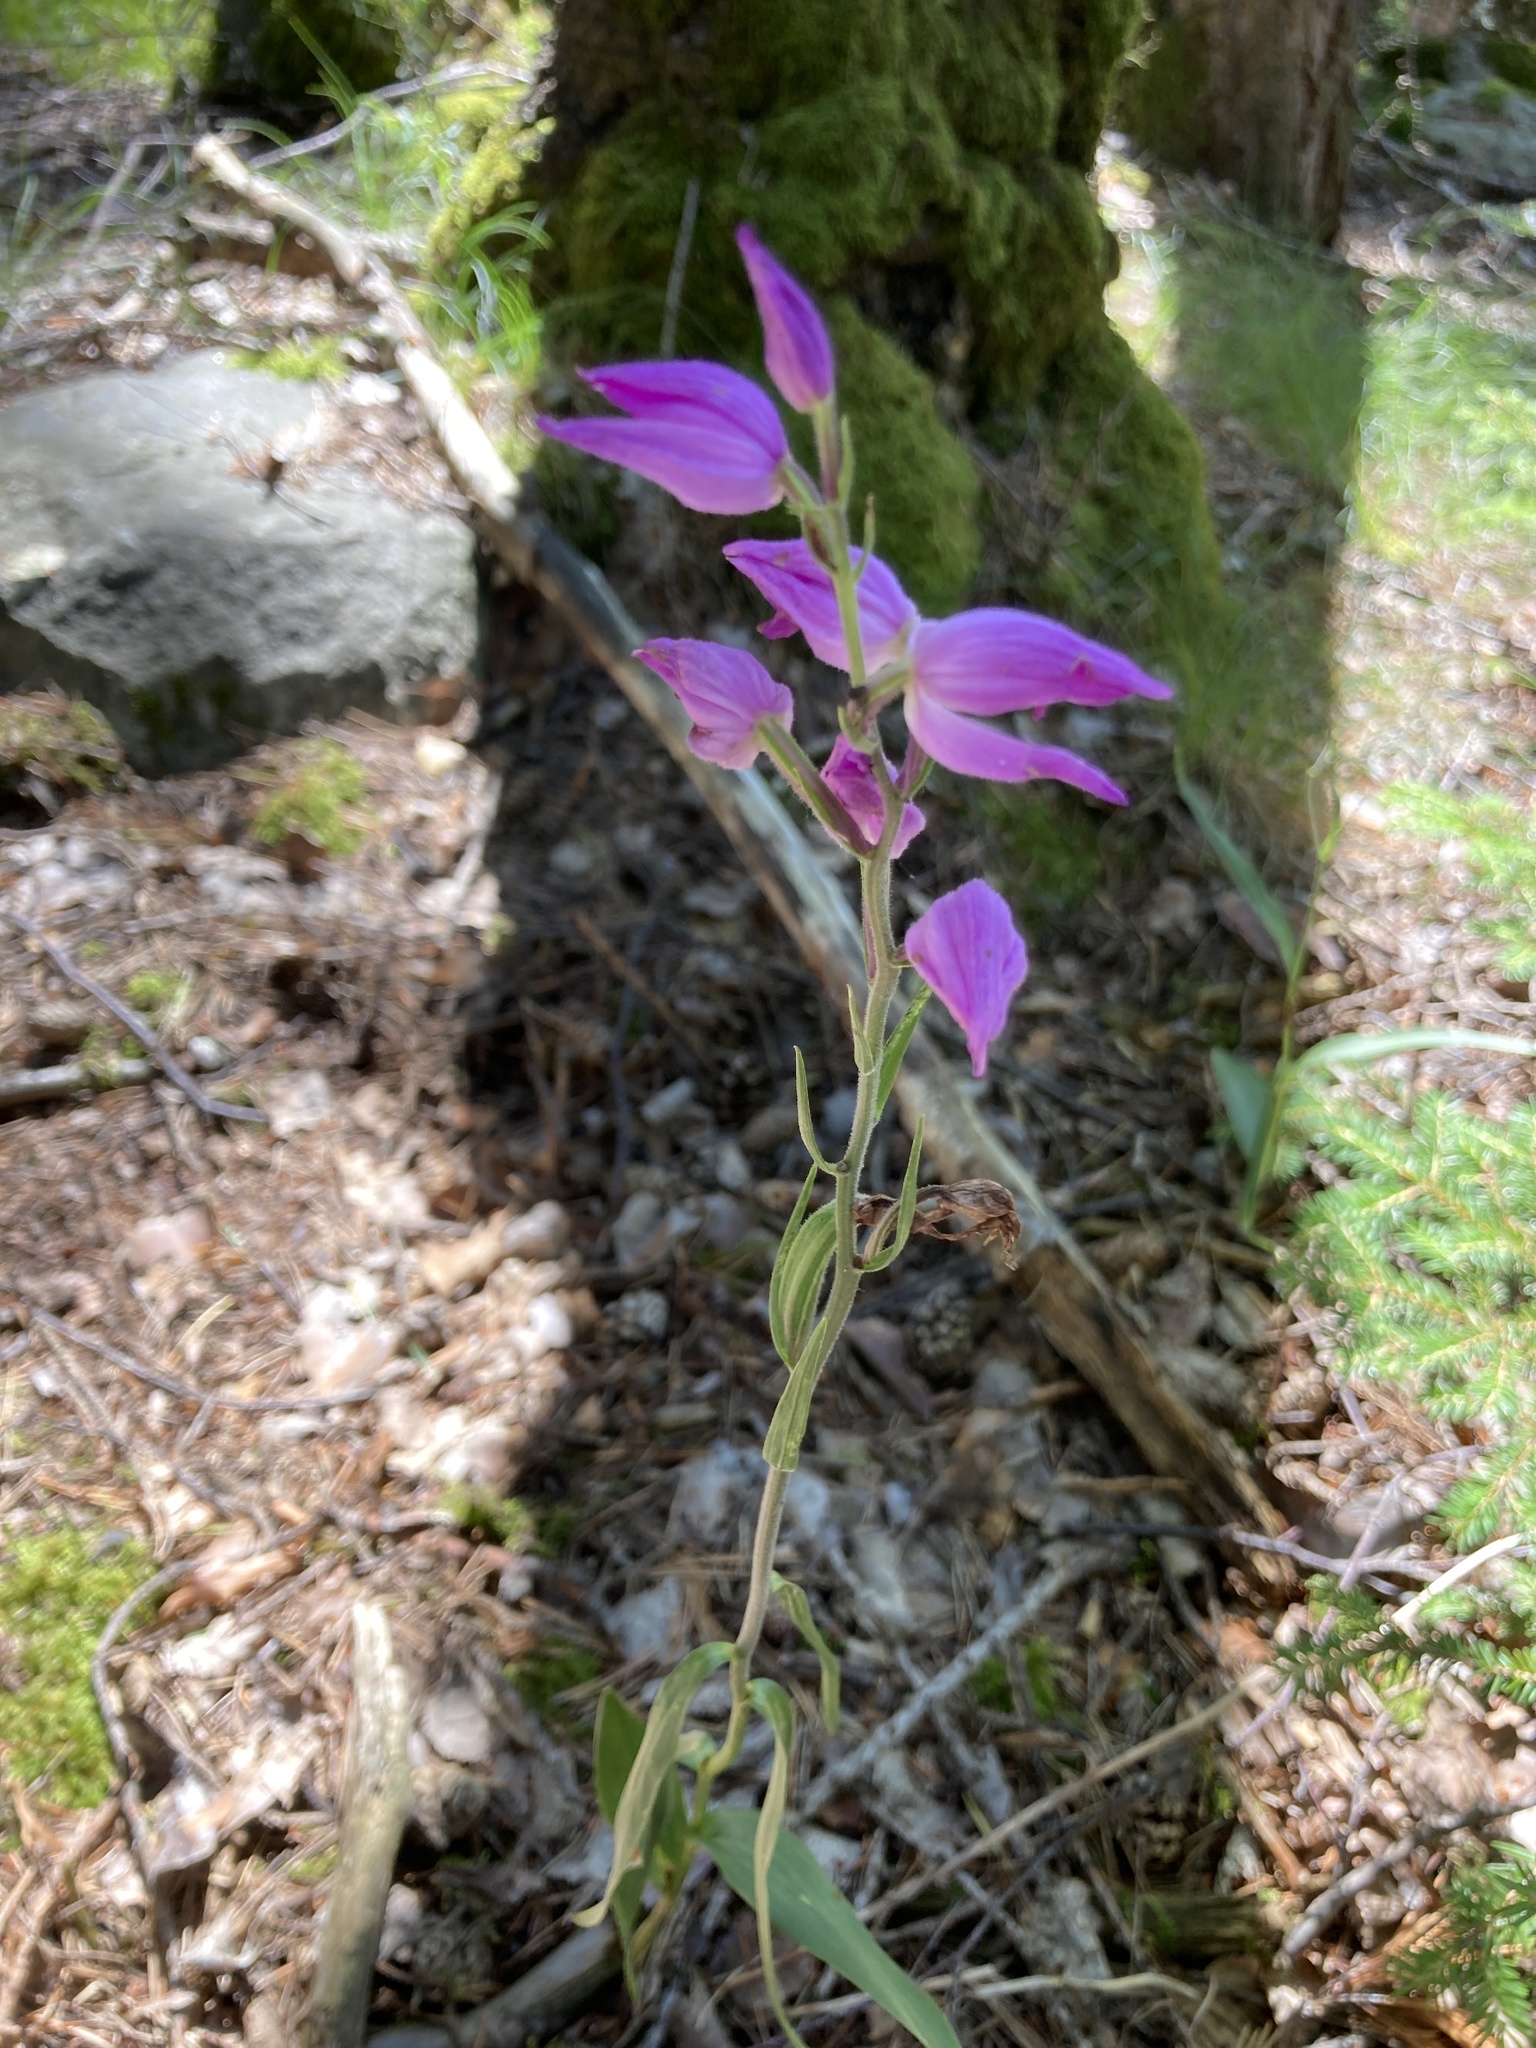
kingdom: Plantae
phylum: Tracheophyta
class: Liliopsida
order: Asparagales
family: Orchidaceae
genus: Cephalanthera
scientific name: Cephalanthera rubra
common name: Red helleborine
